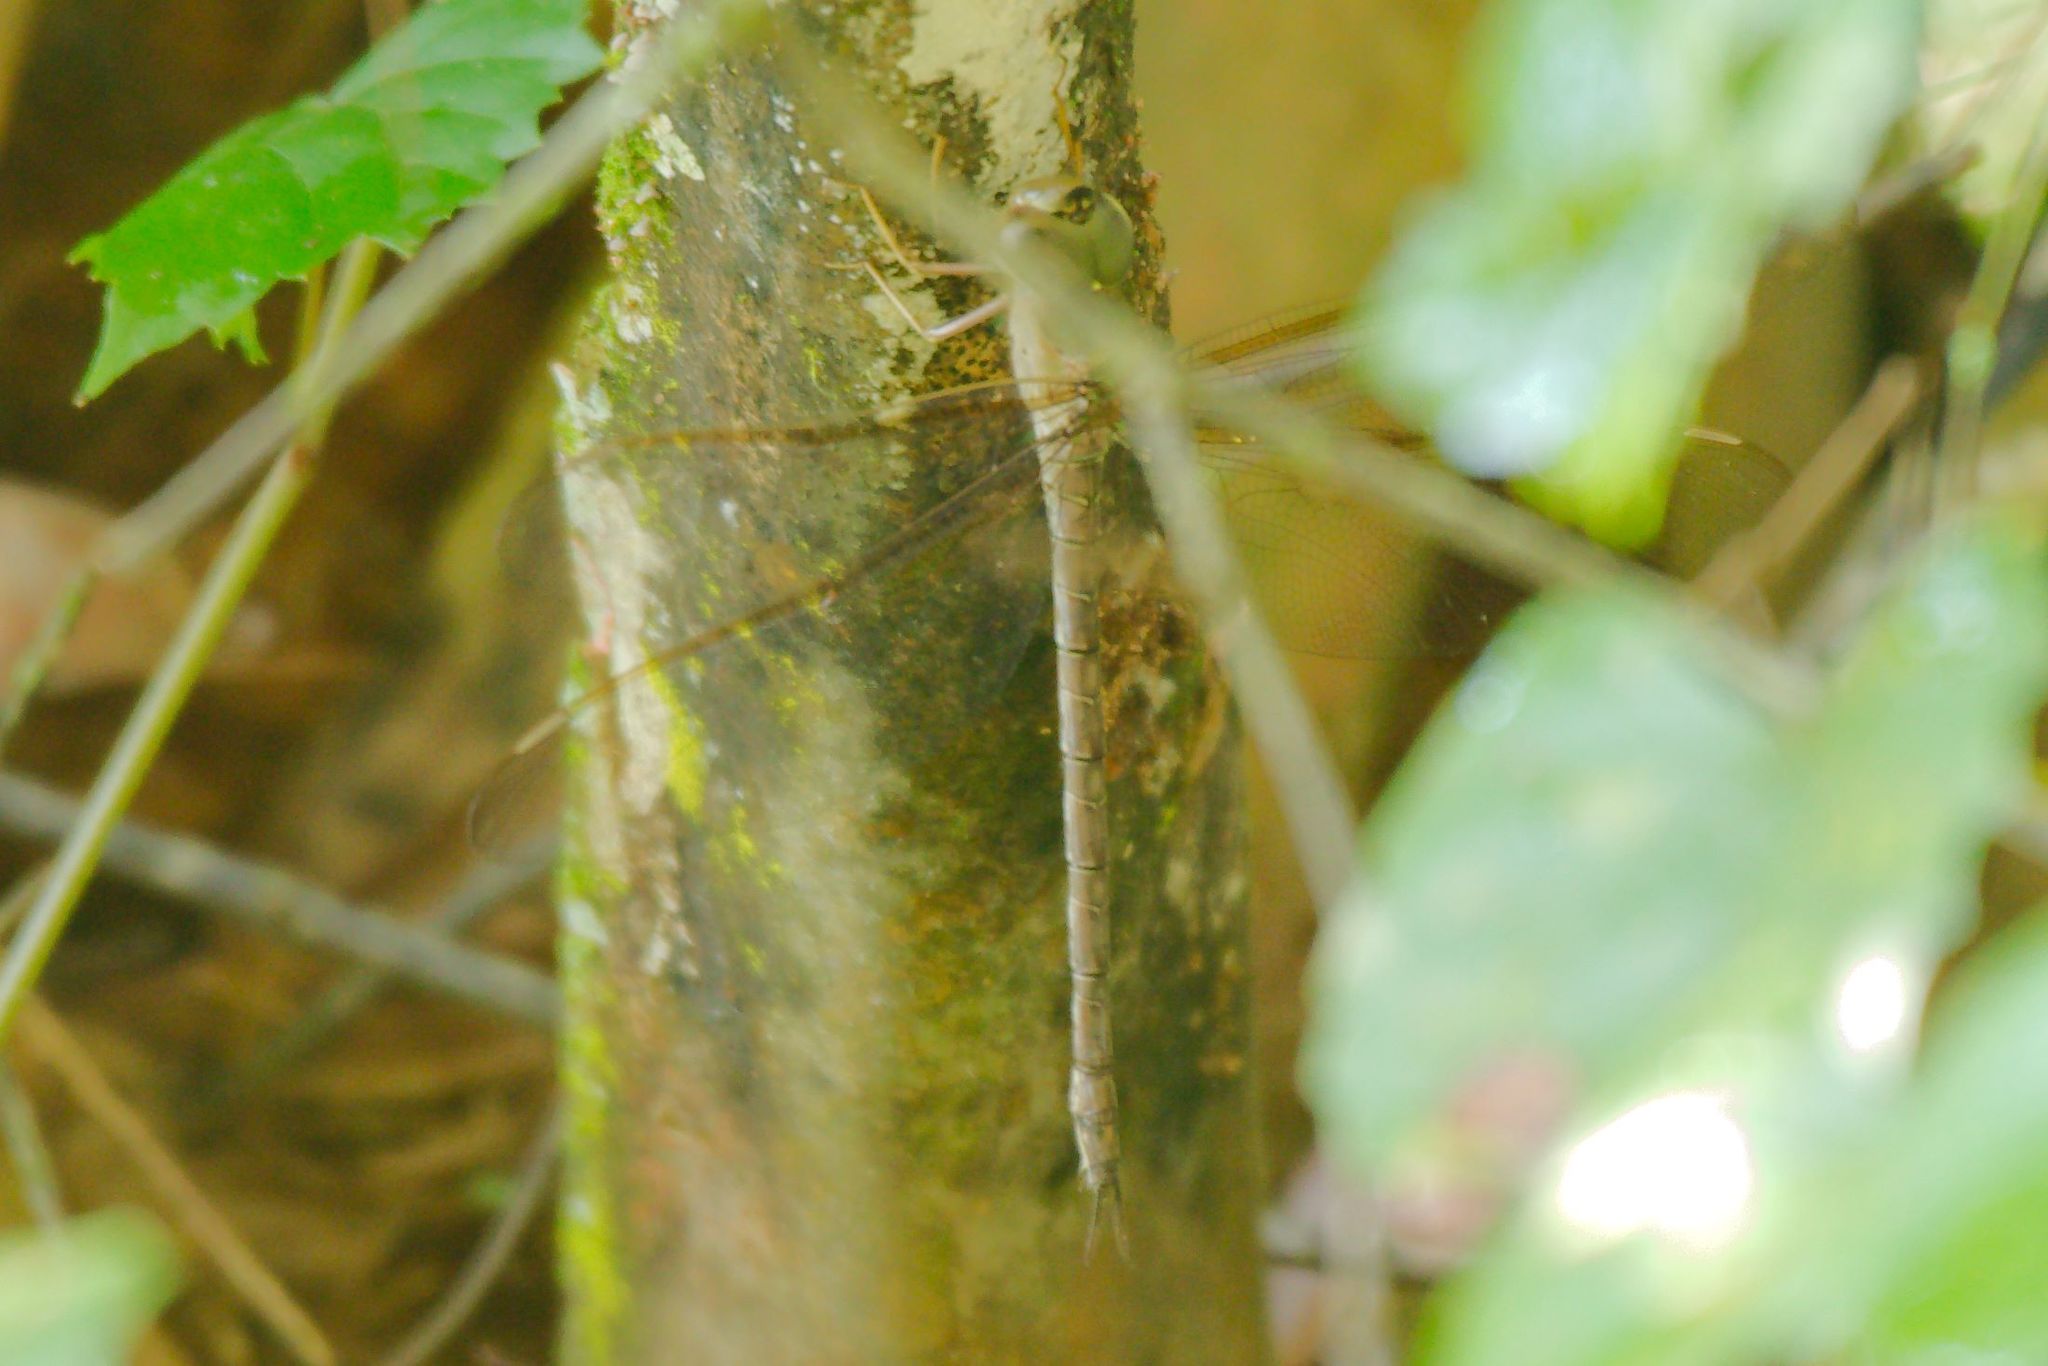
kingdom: Animalia
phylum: Arthropoda
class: Insecta
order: Odonata
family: Aeshnidae
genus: Gynacantha
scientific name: Gynacantha nervosa
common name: Twilight darner
